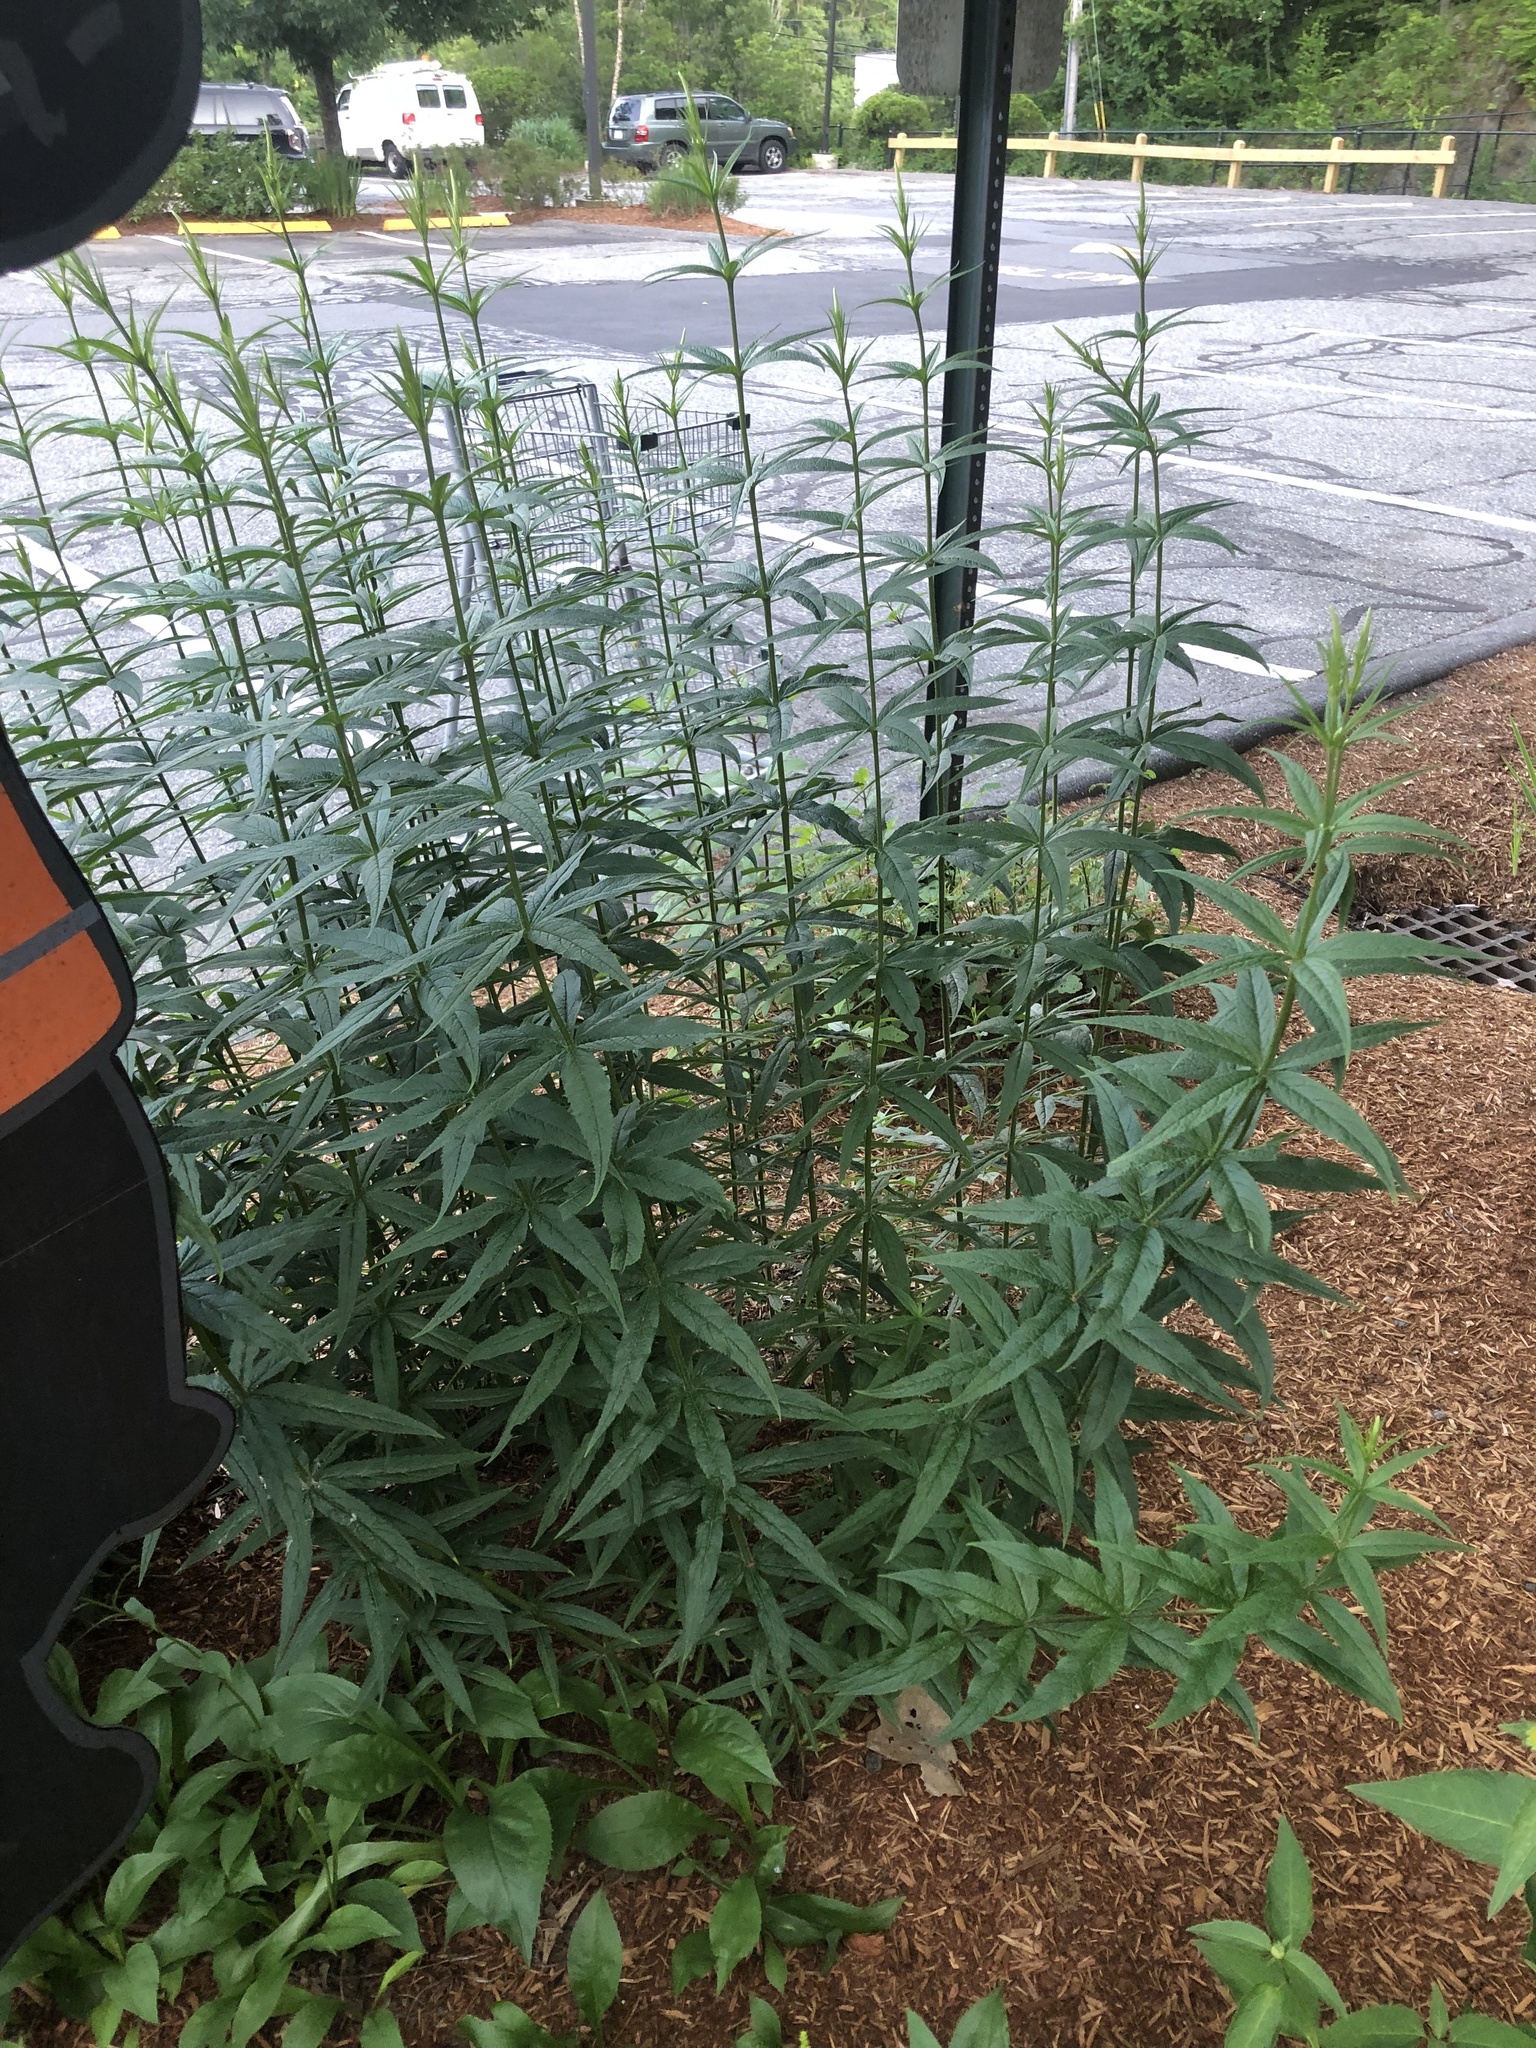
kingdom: Plantae
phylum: Tracheophyta
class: Magnoliopsida
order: Lamiales
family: Plantaginaceae
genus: Veronicastrum
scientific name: Veronicastrum virginicum
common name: Blackroot
